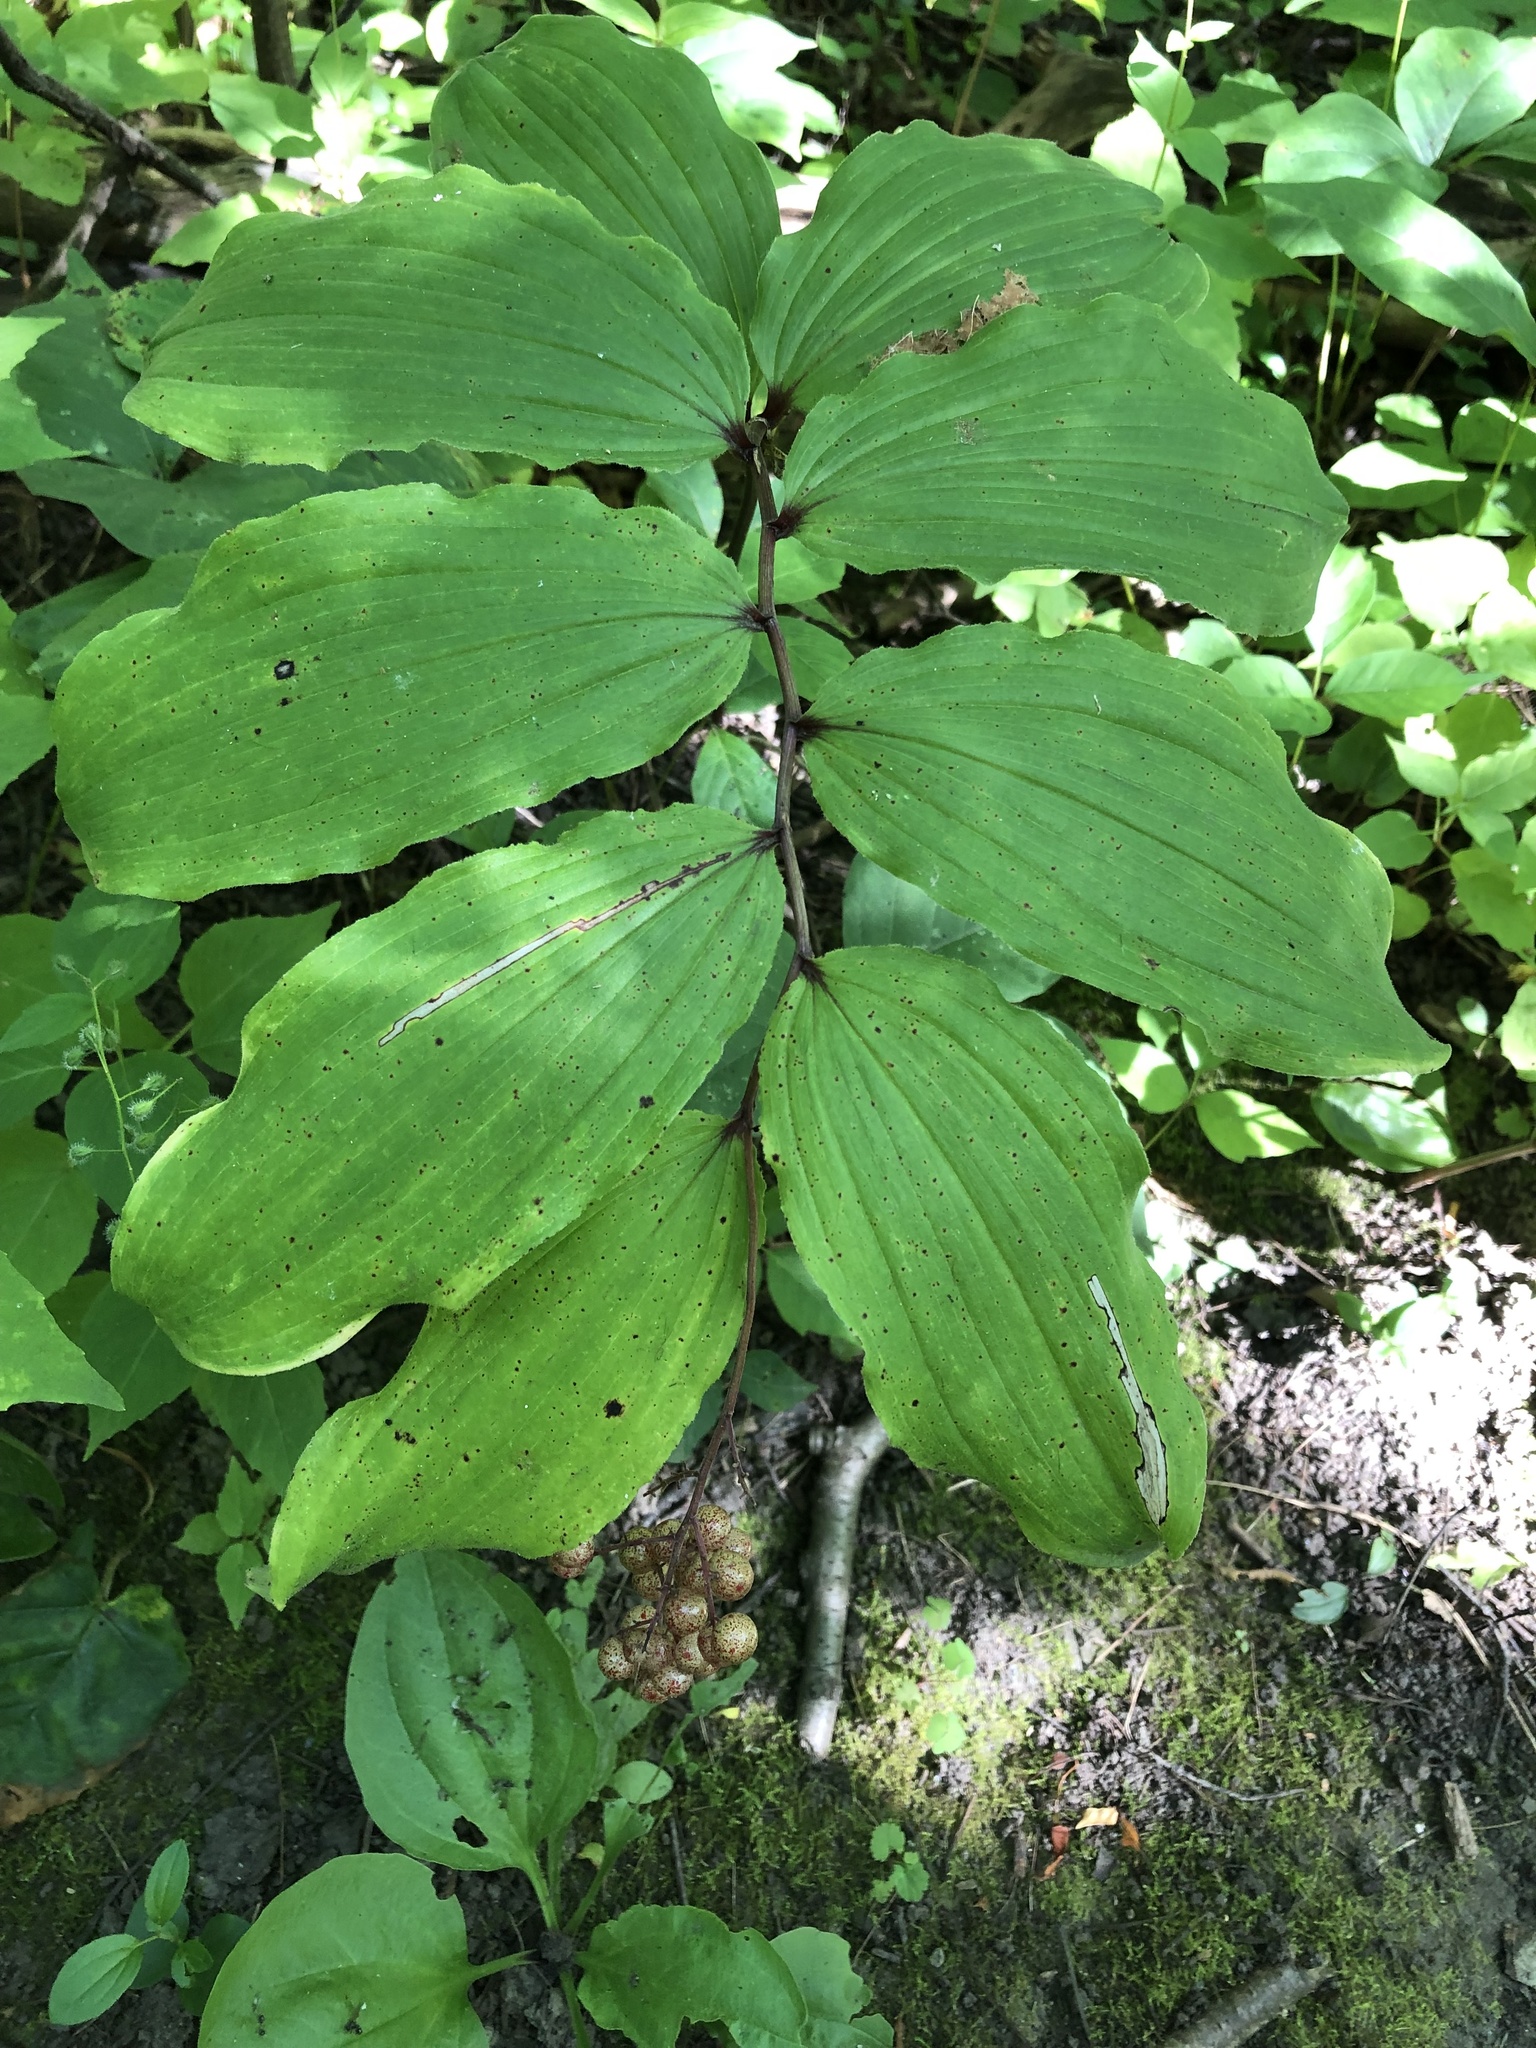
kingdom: Plantae
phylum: Tracheophyta
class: Liliopsida
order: Asparagales
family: Asparagaceae
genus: Maianthemum
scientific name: Maianthemum racemosum
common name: False spikenard
